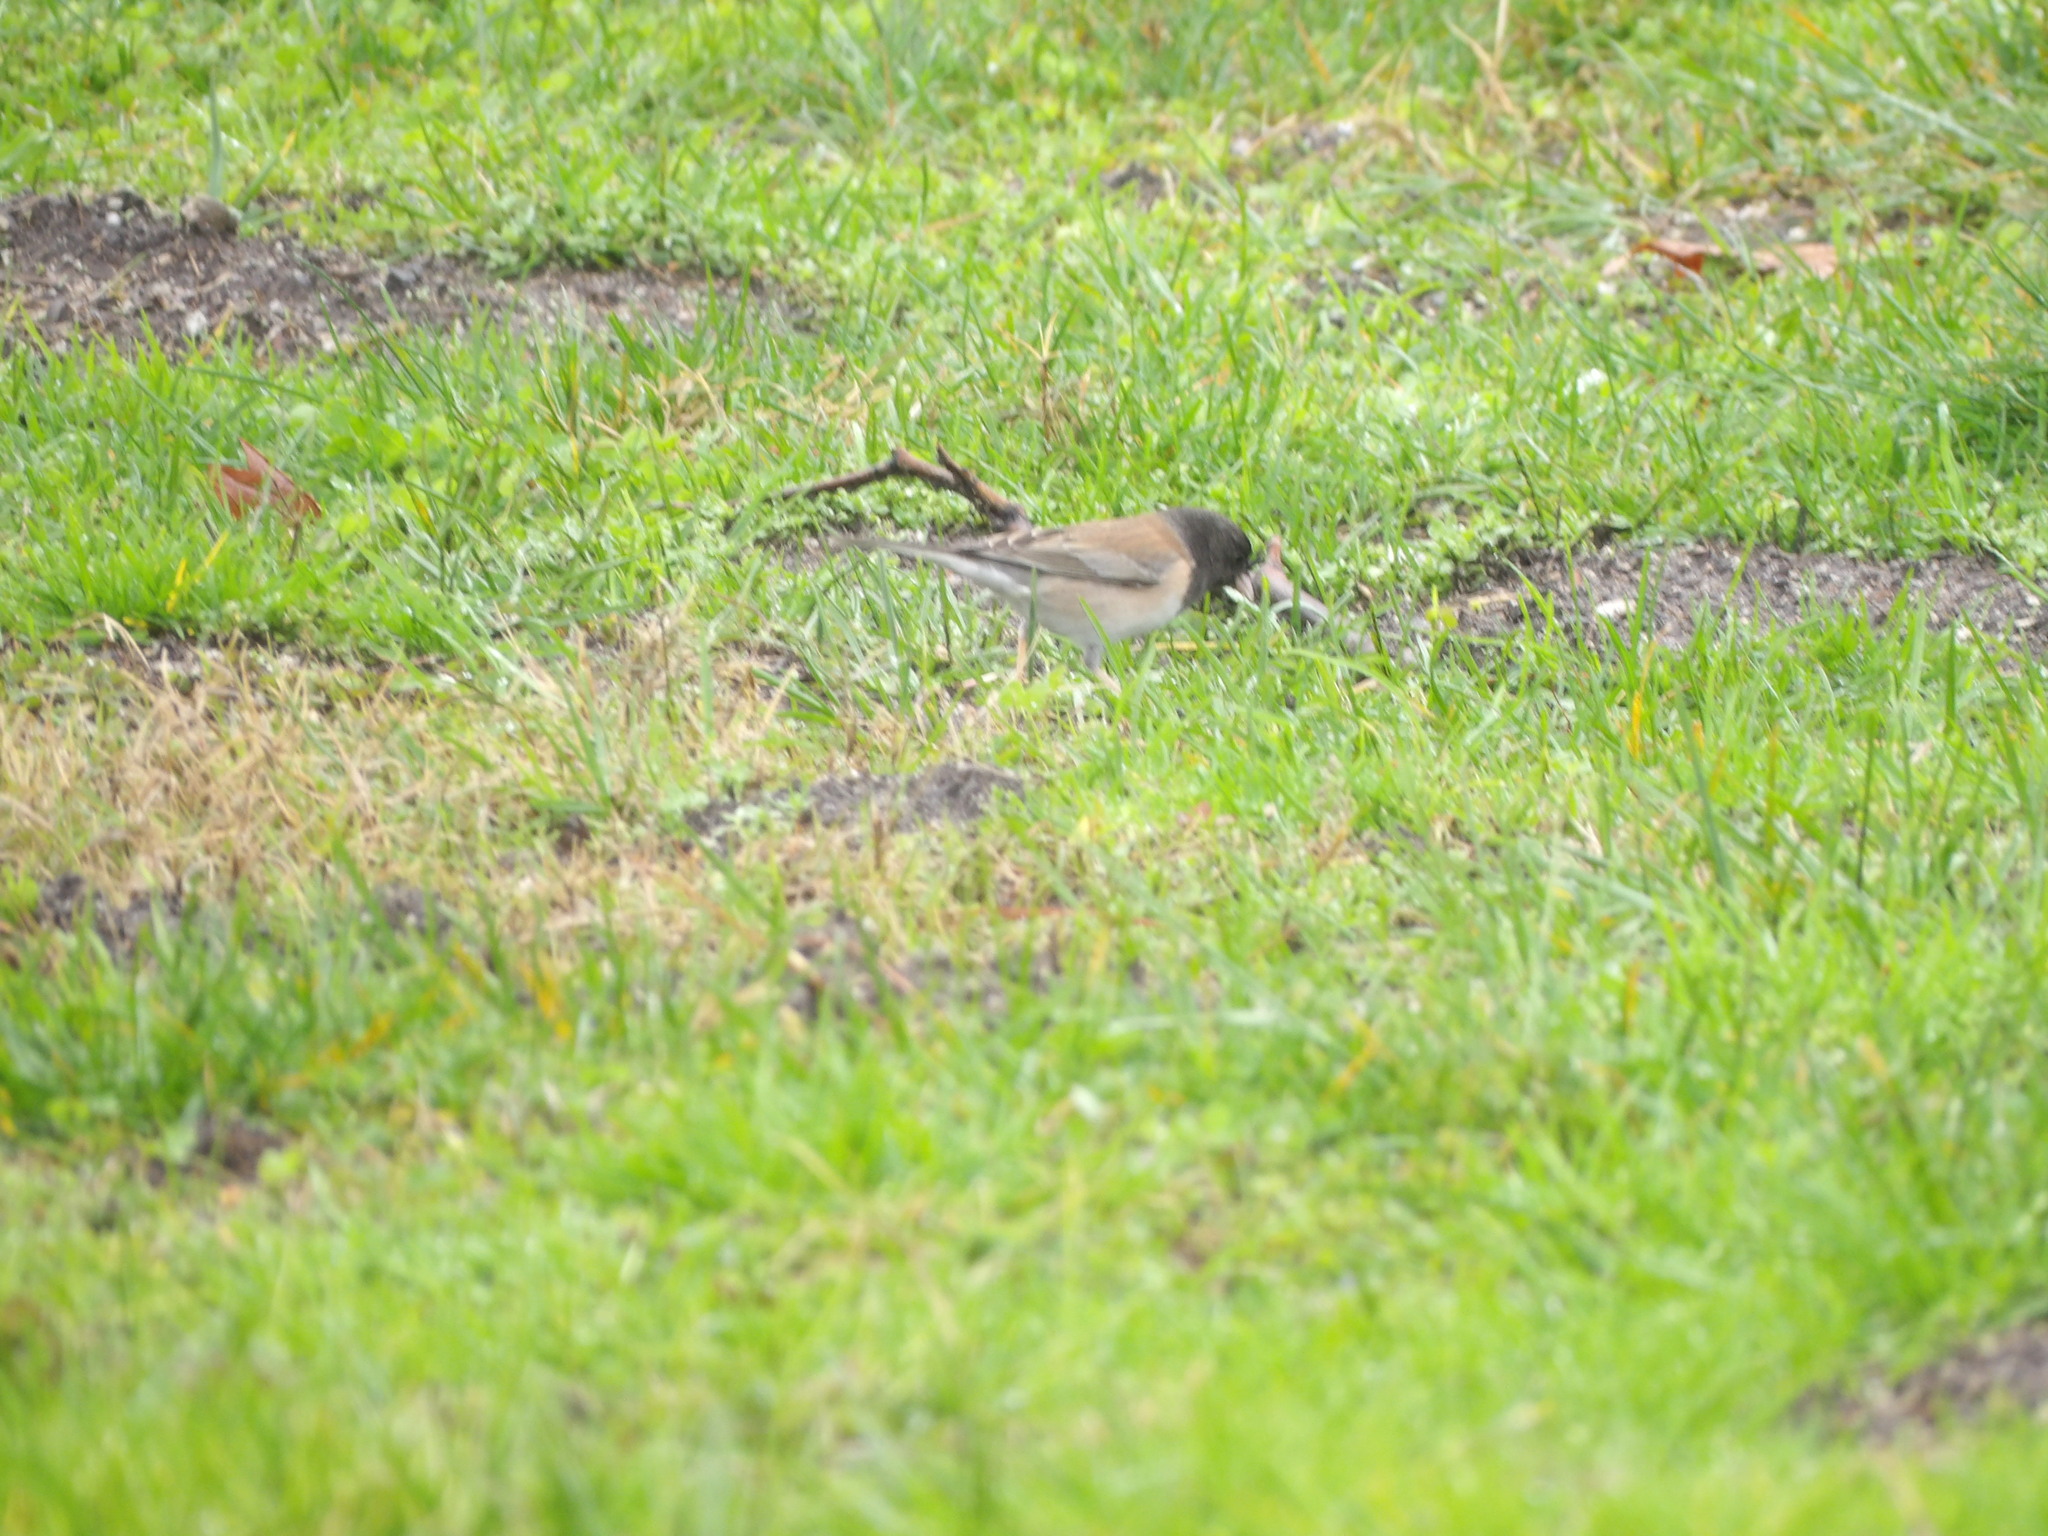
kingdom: Animalia
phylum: Chordata
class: Aves
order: Passeriformes
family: Passerellidae
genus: Junco
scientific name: Junco hyemalis
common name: Dark-eyed junco
